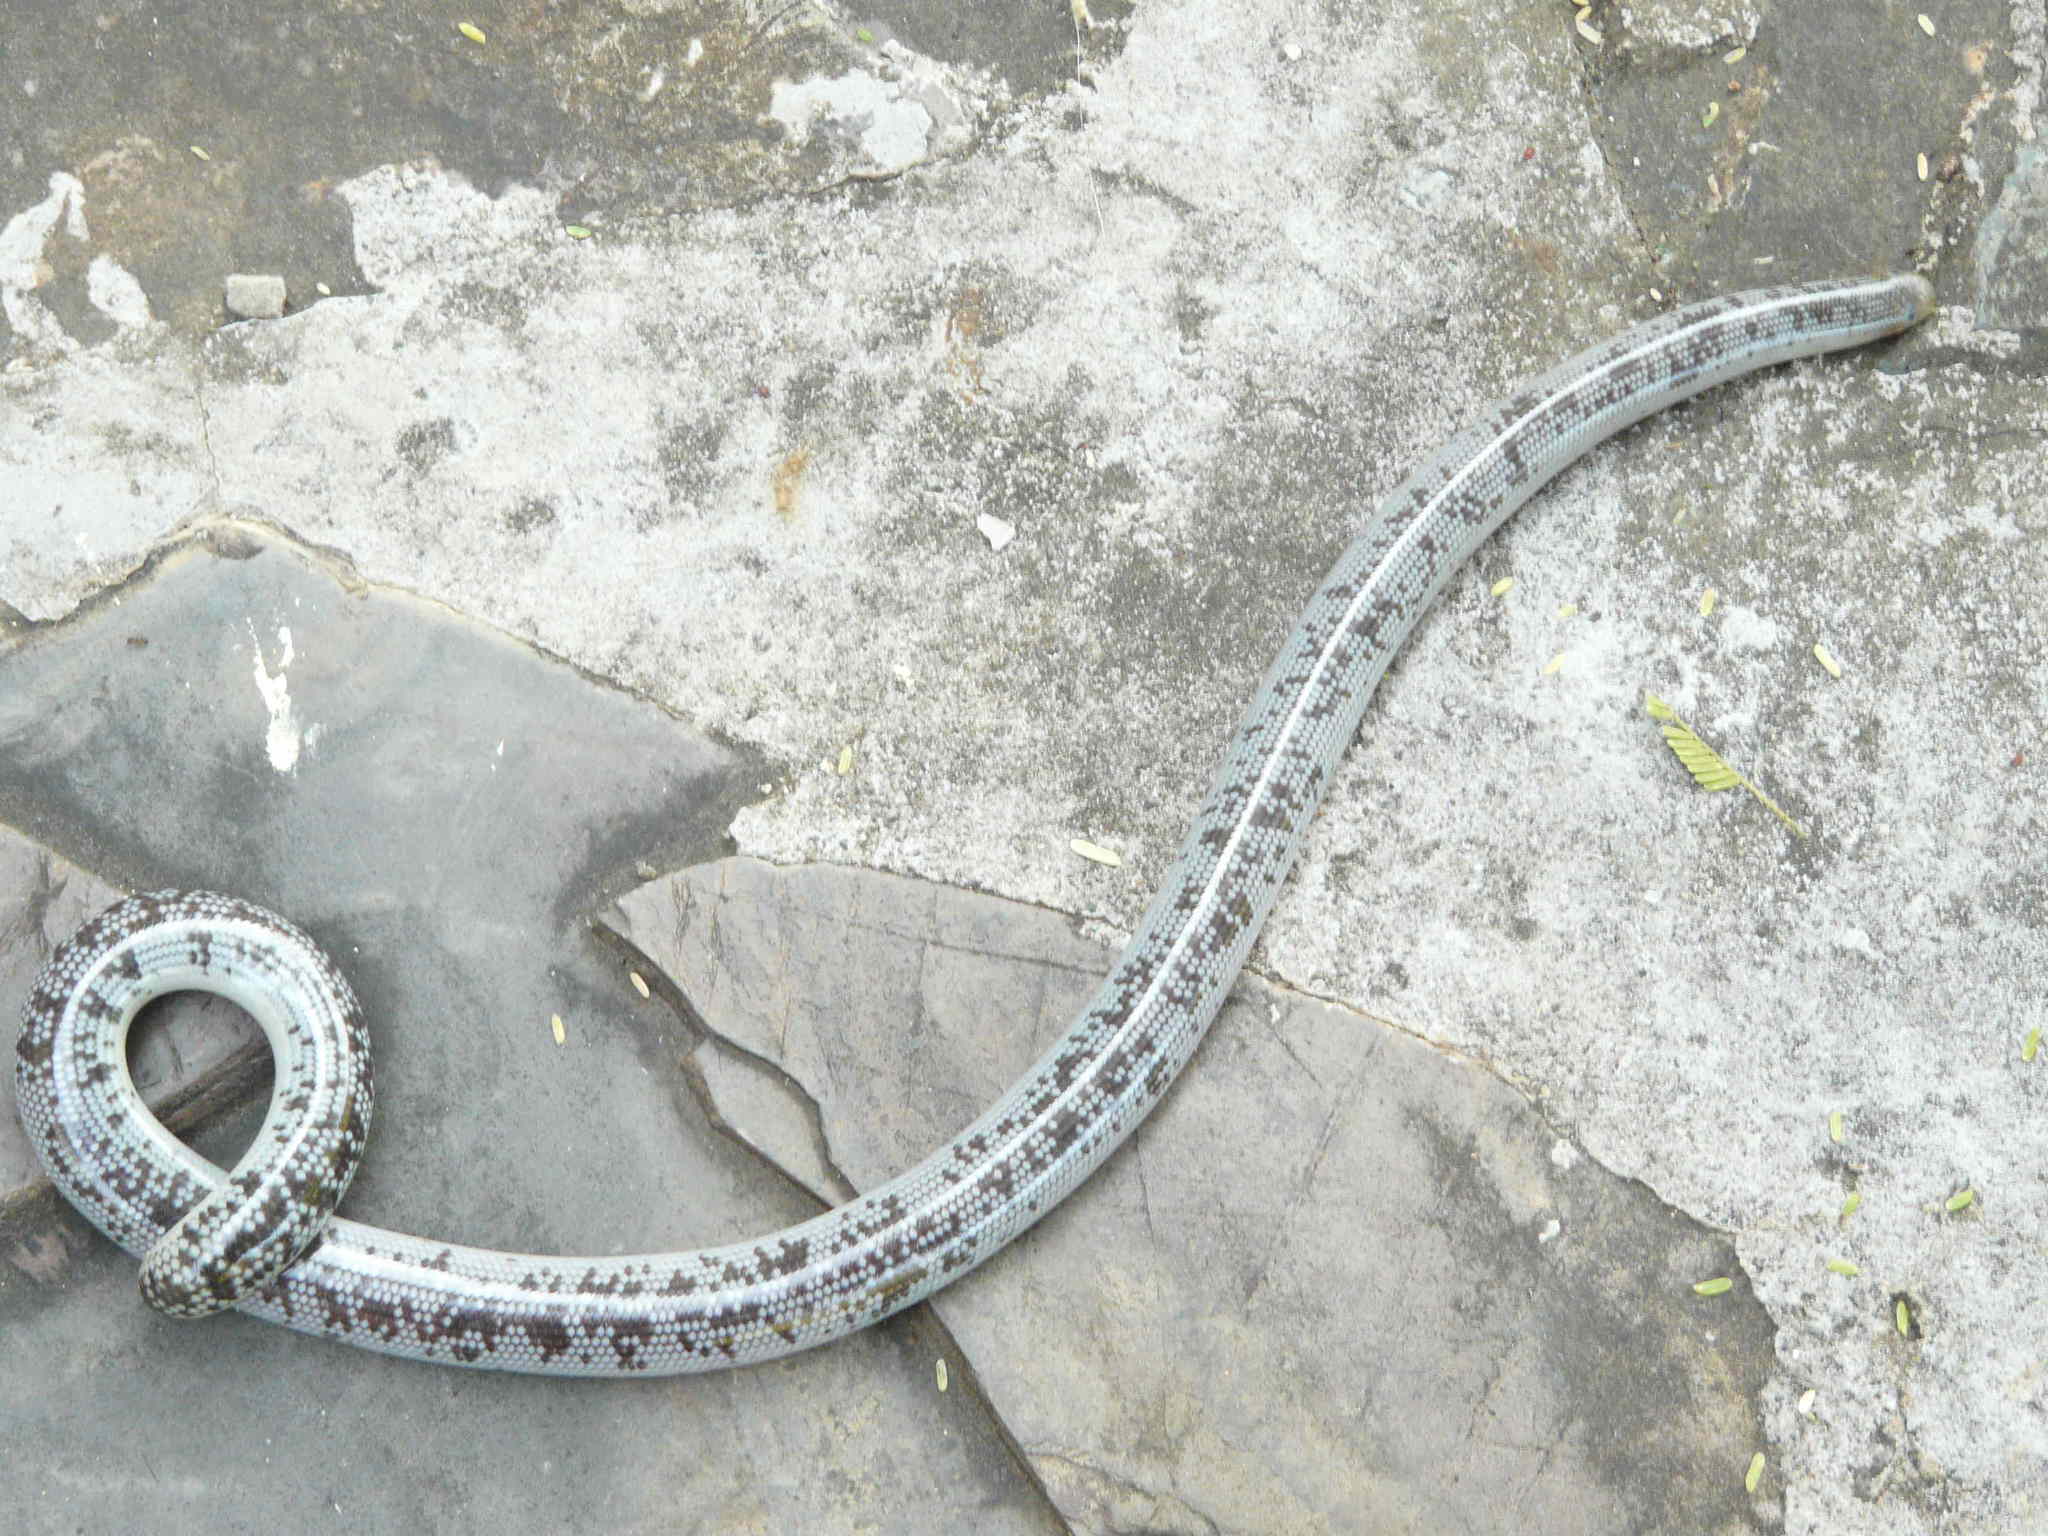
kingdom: Animalia
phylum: Chordata
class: Squamata
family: Typhlopidae
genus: Afrotyphlops
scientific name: Afrotyphlops mucruso
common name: Zambezi blind snake
